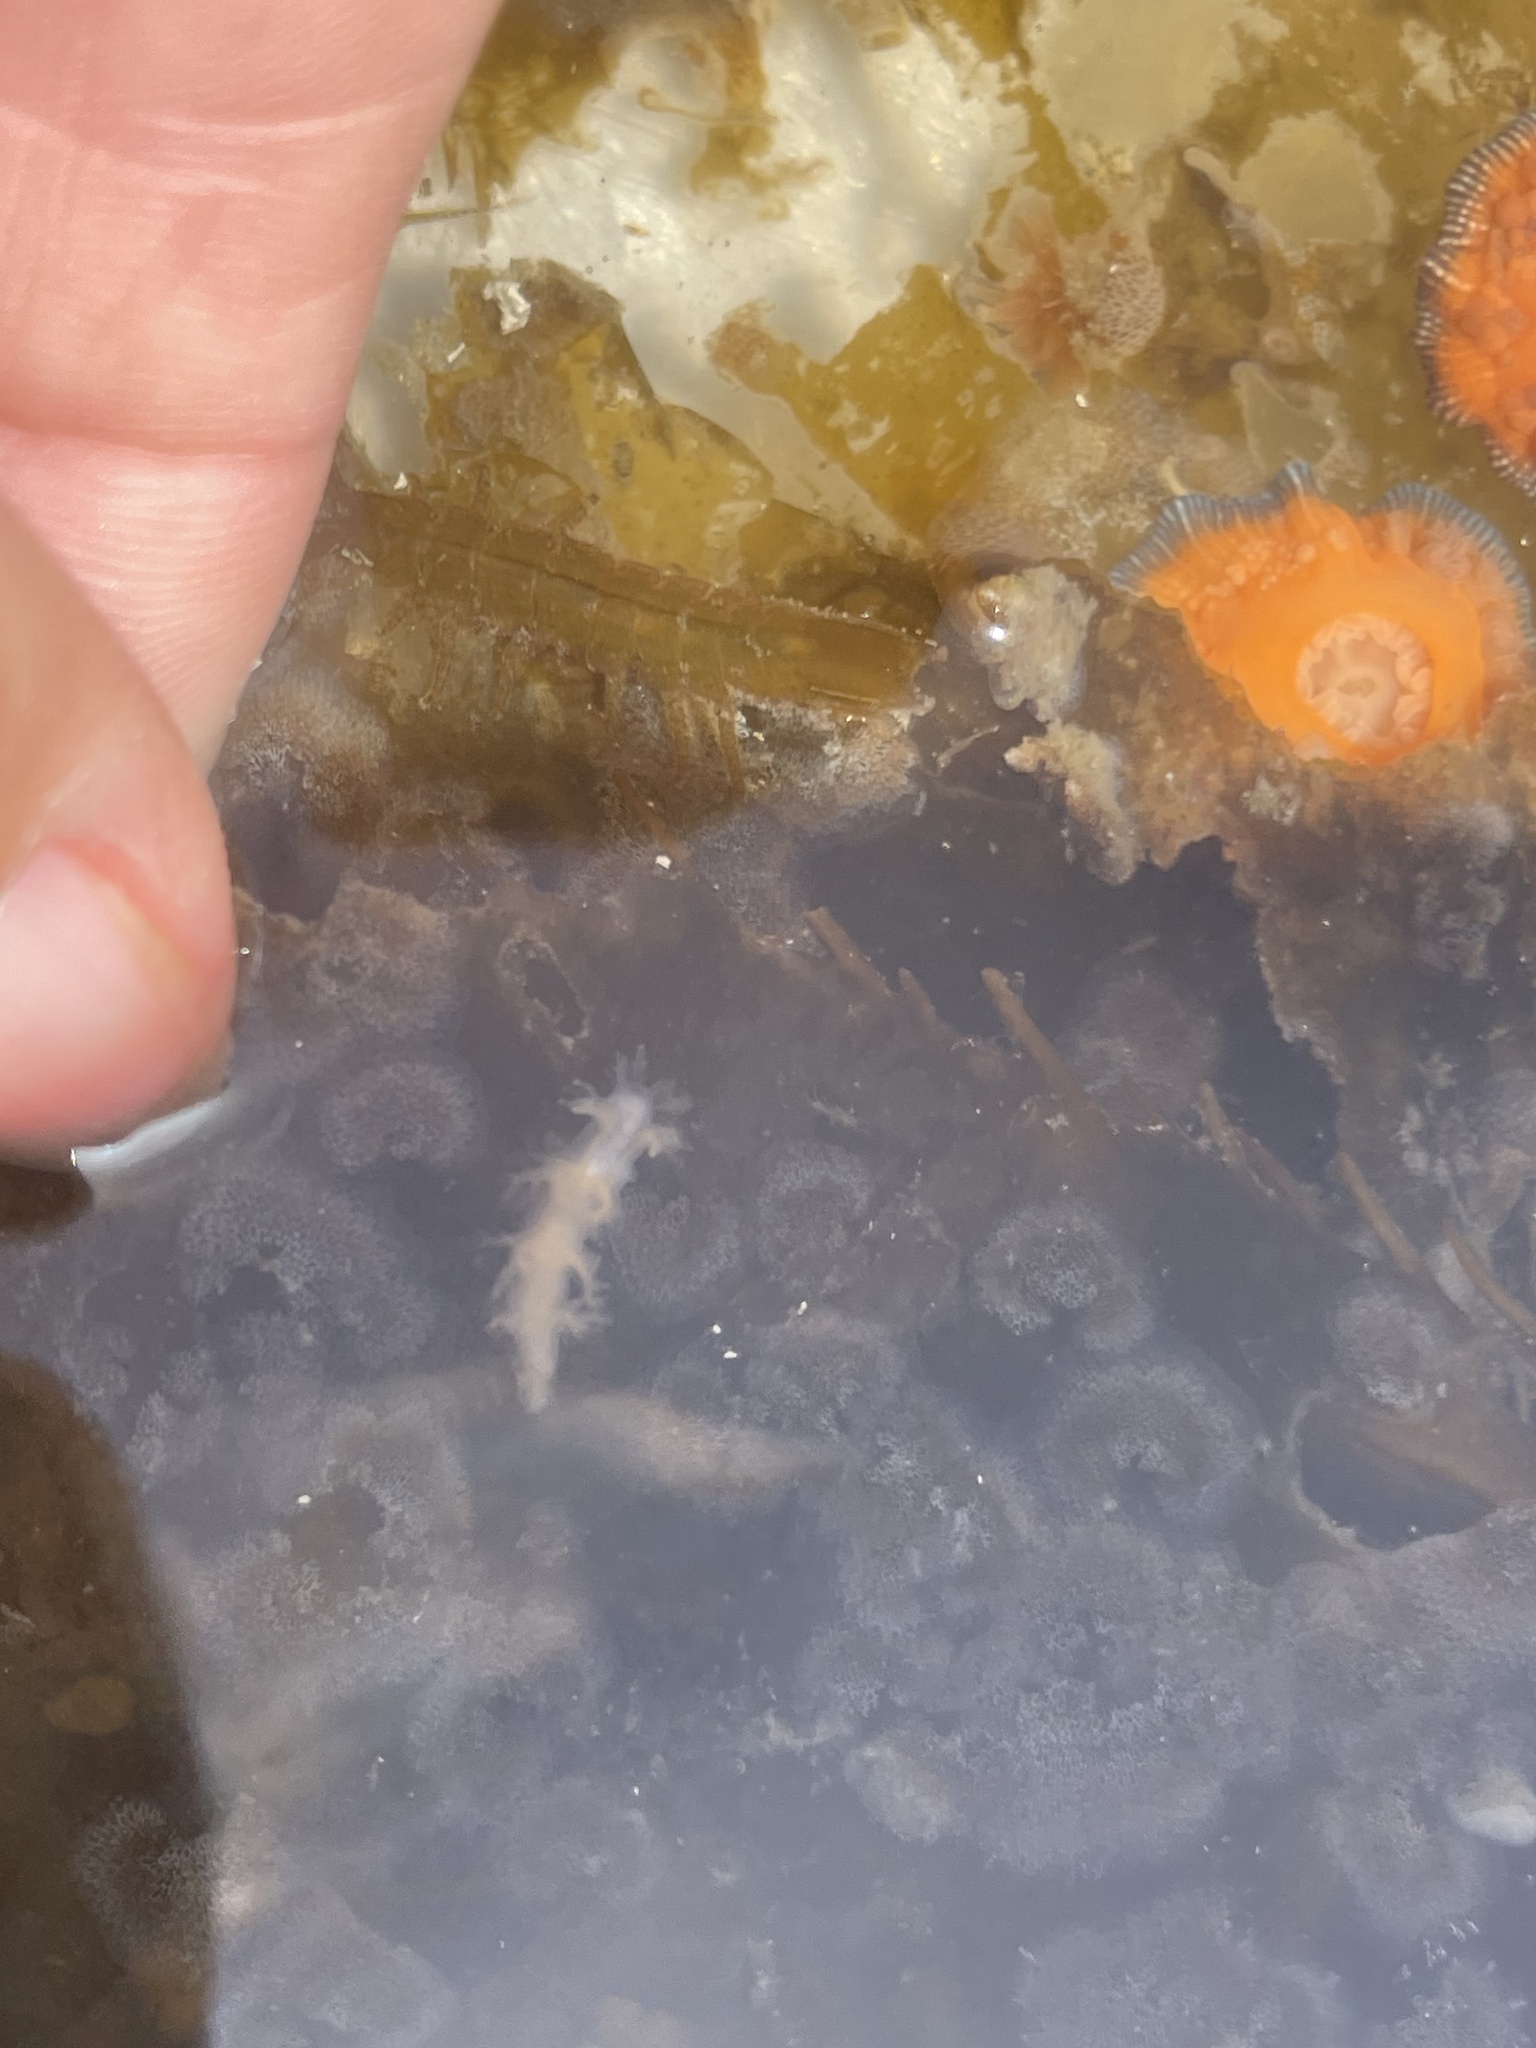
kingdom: Animalia
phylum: Mollusca
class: Gastropoda
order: Nudibranchia
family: Dendronotidae
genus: Dendronotus
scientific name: Dendronotus venustus
